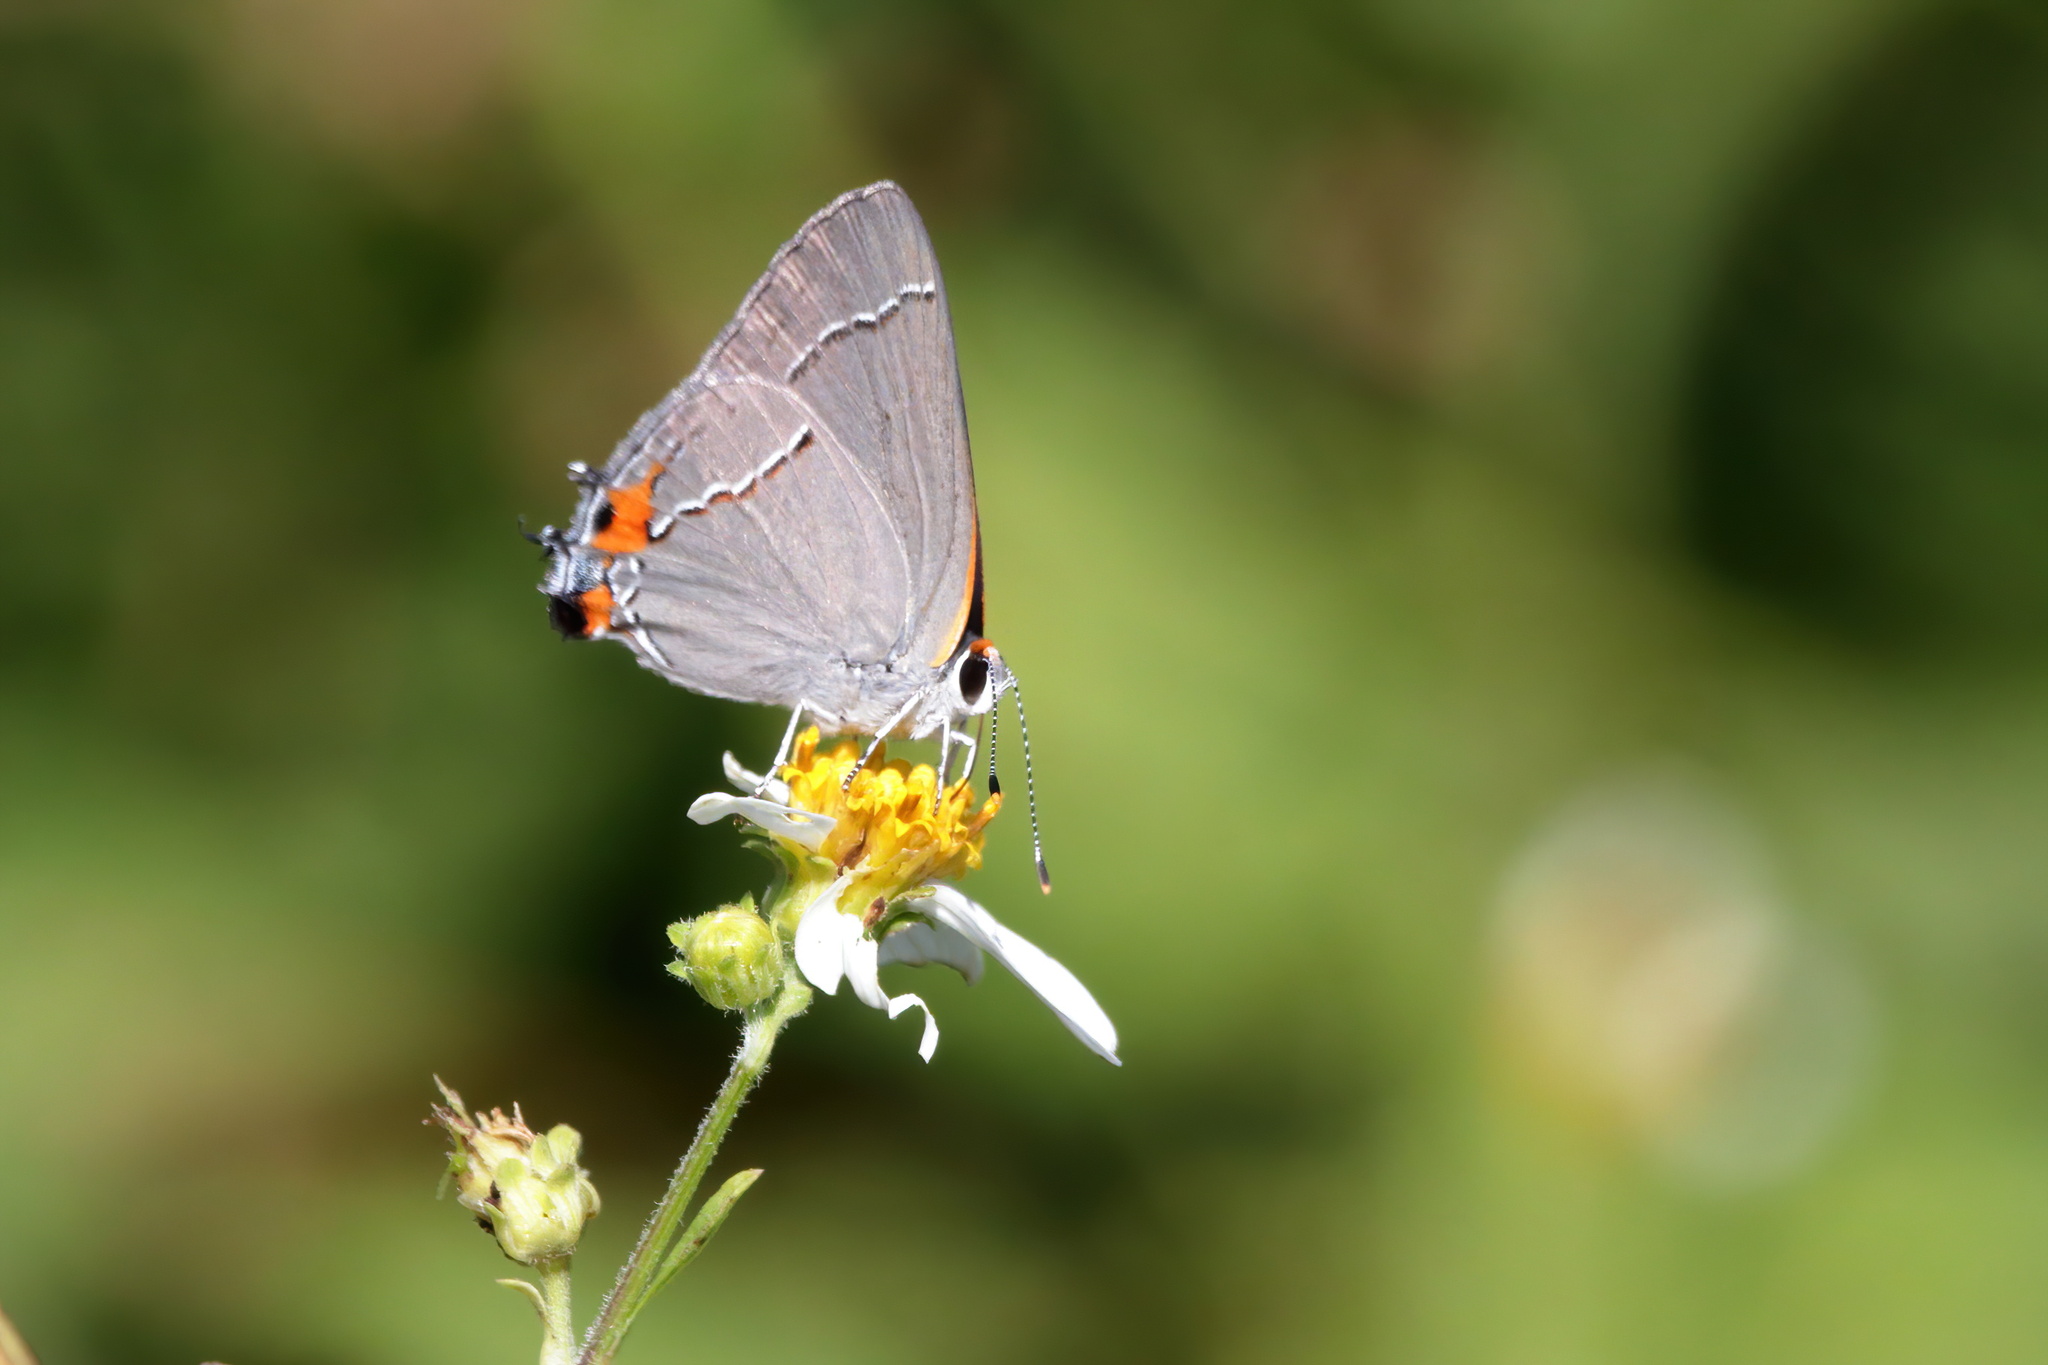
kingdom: Animalia
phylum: Arthropoda
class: Insecta
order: Lepidoptera
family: Lycaenidae
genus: Strymon
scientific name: Strymon melinus
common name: Gray hairstreak
